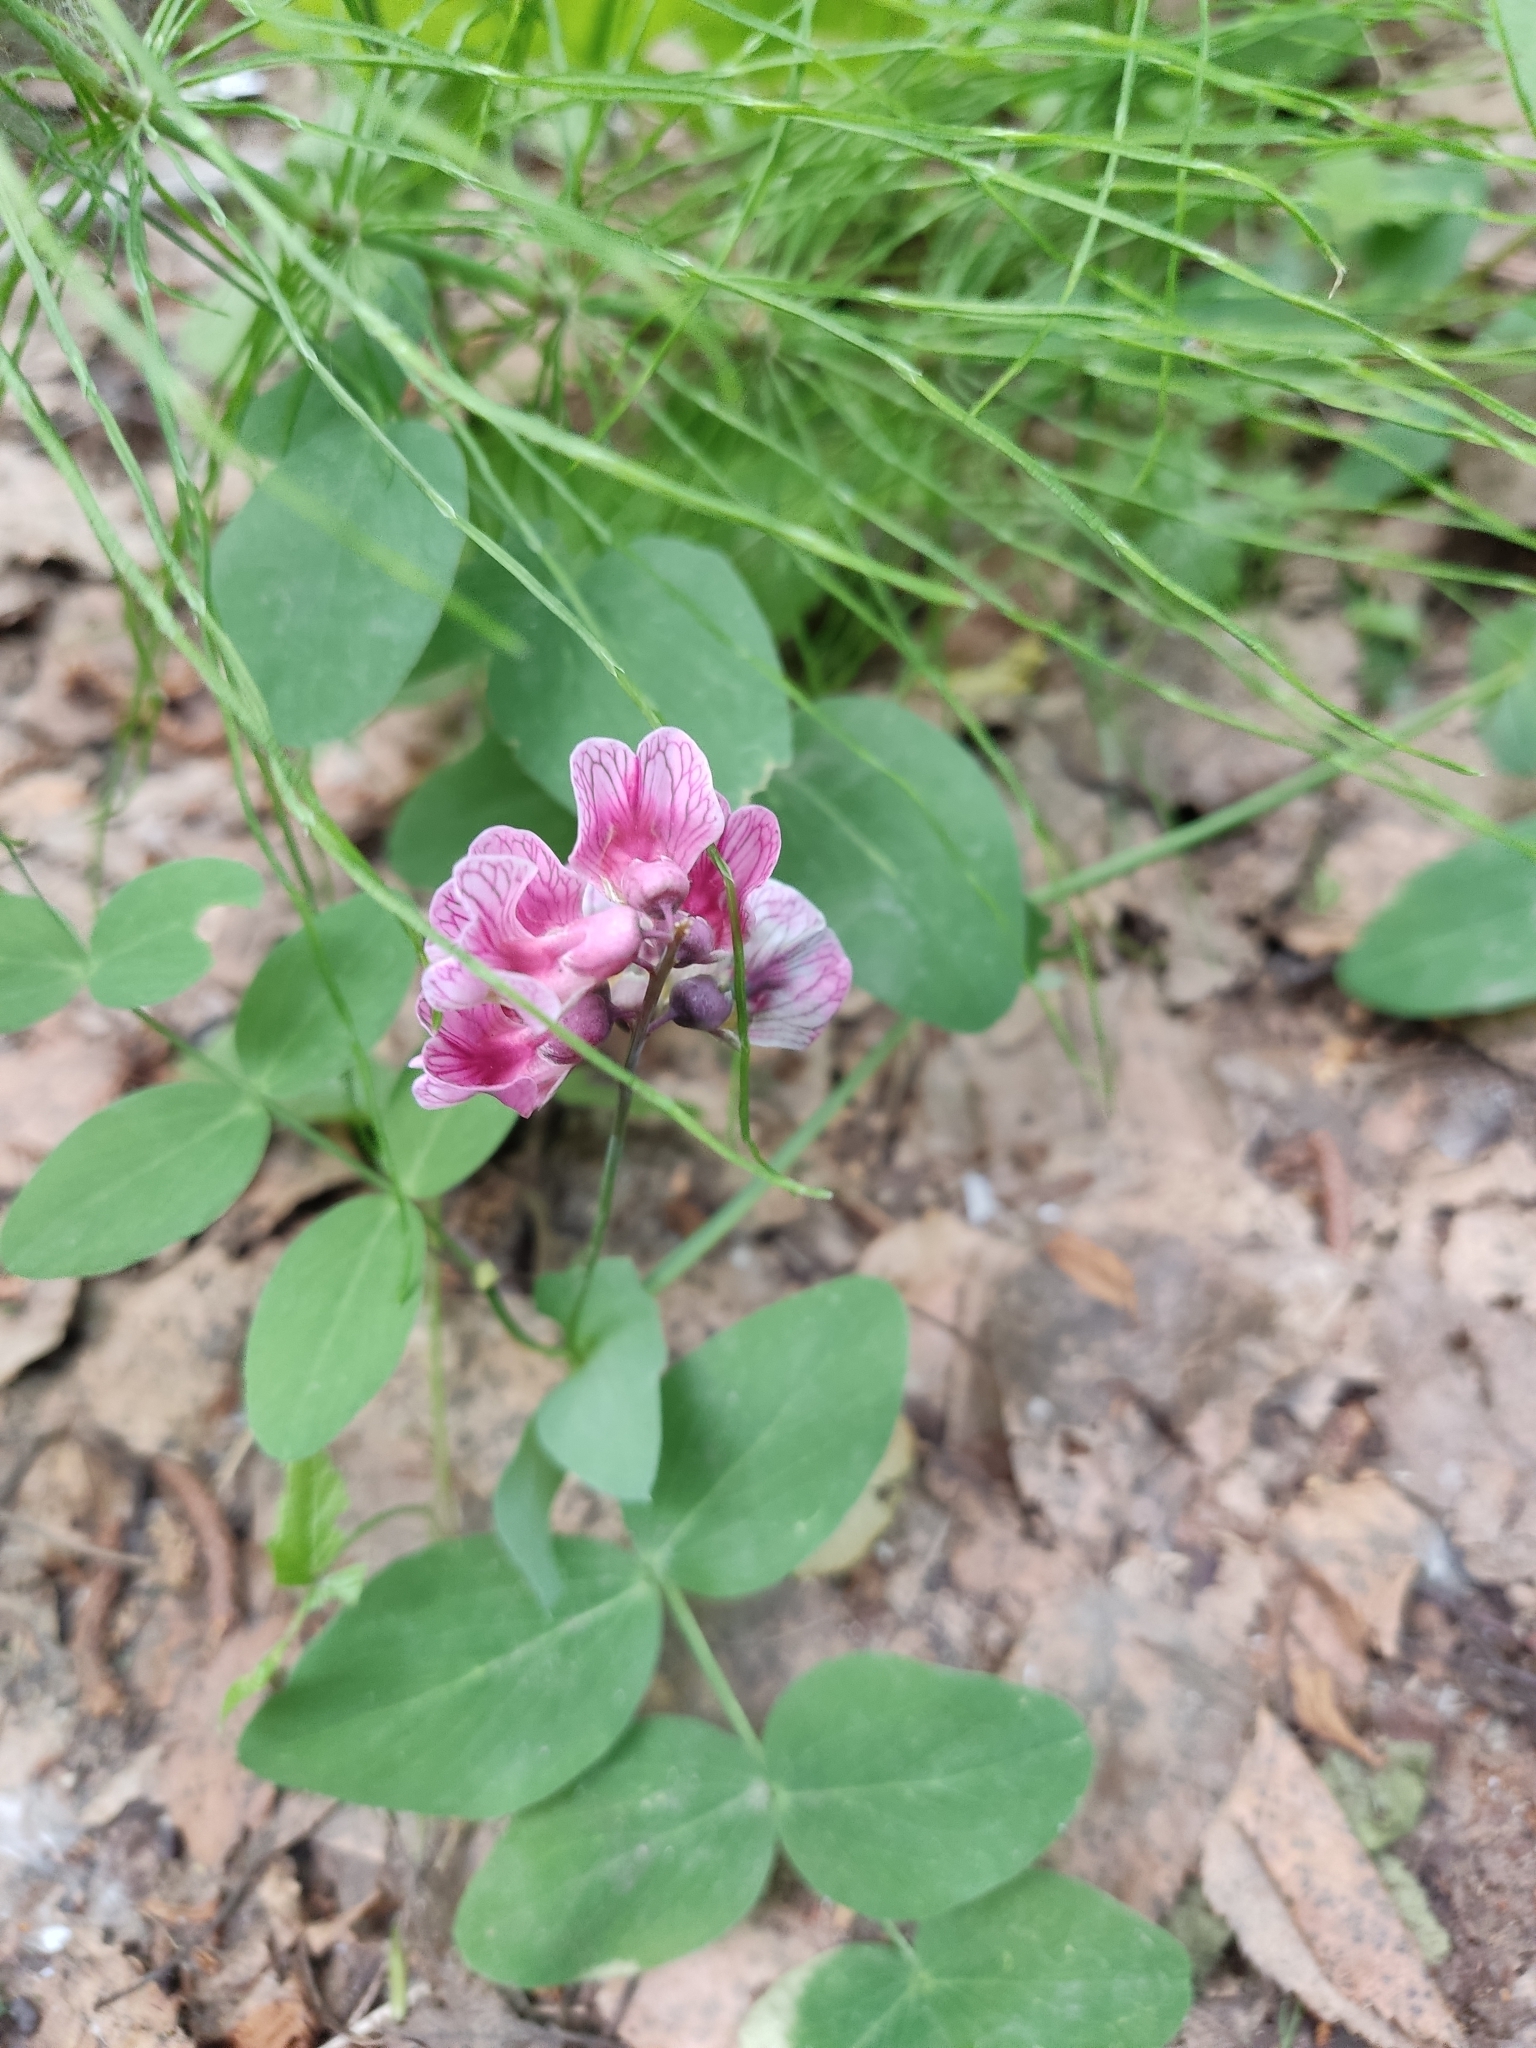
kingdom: Plantae
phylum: Tracheophyta
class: Magnoliopsida
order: Fabales
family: Fabaceae
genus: Lathyrus
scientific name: Lathyrus pisiformis
